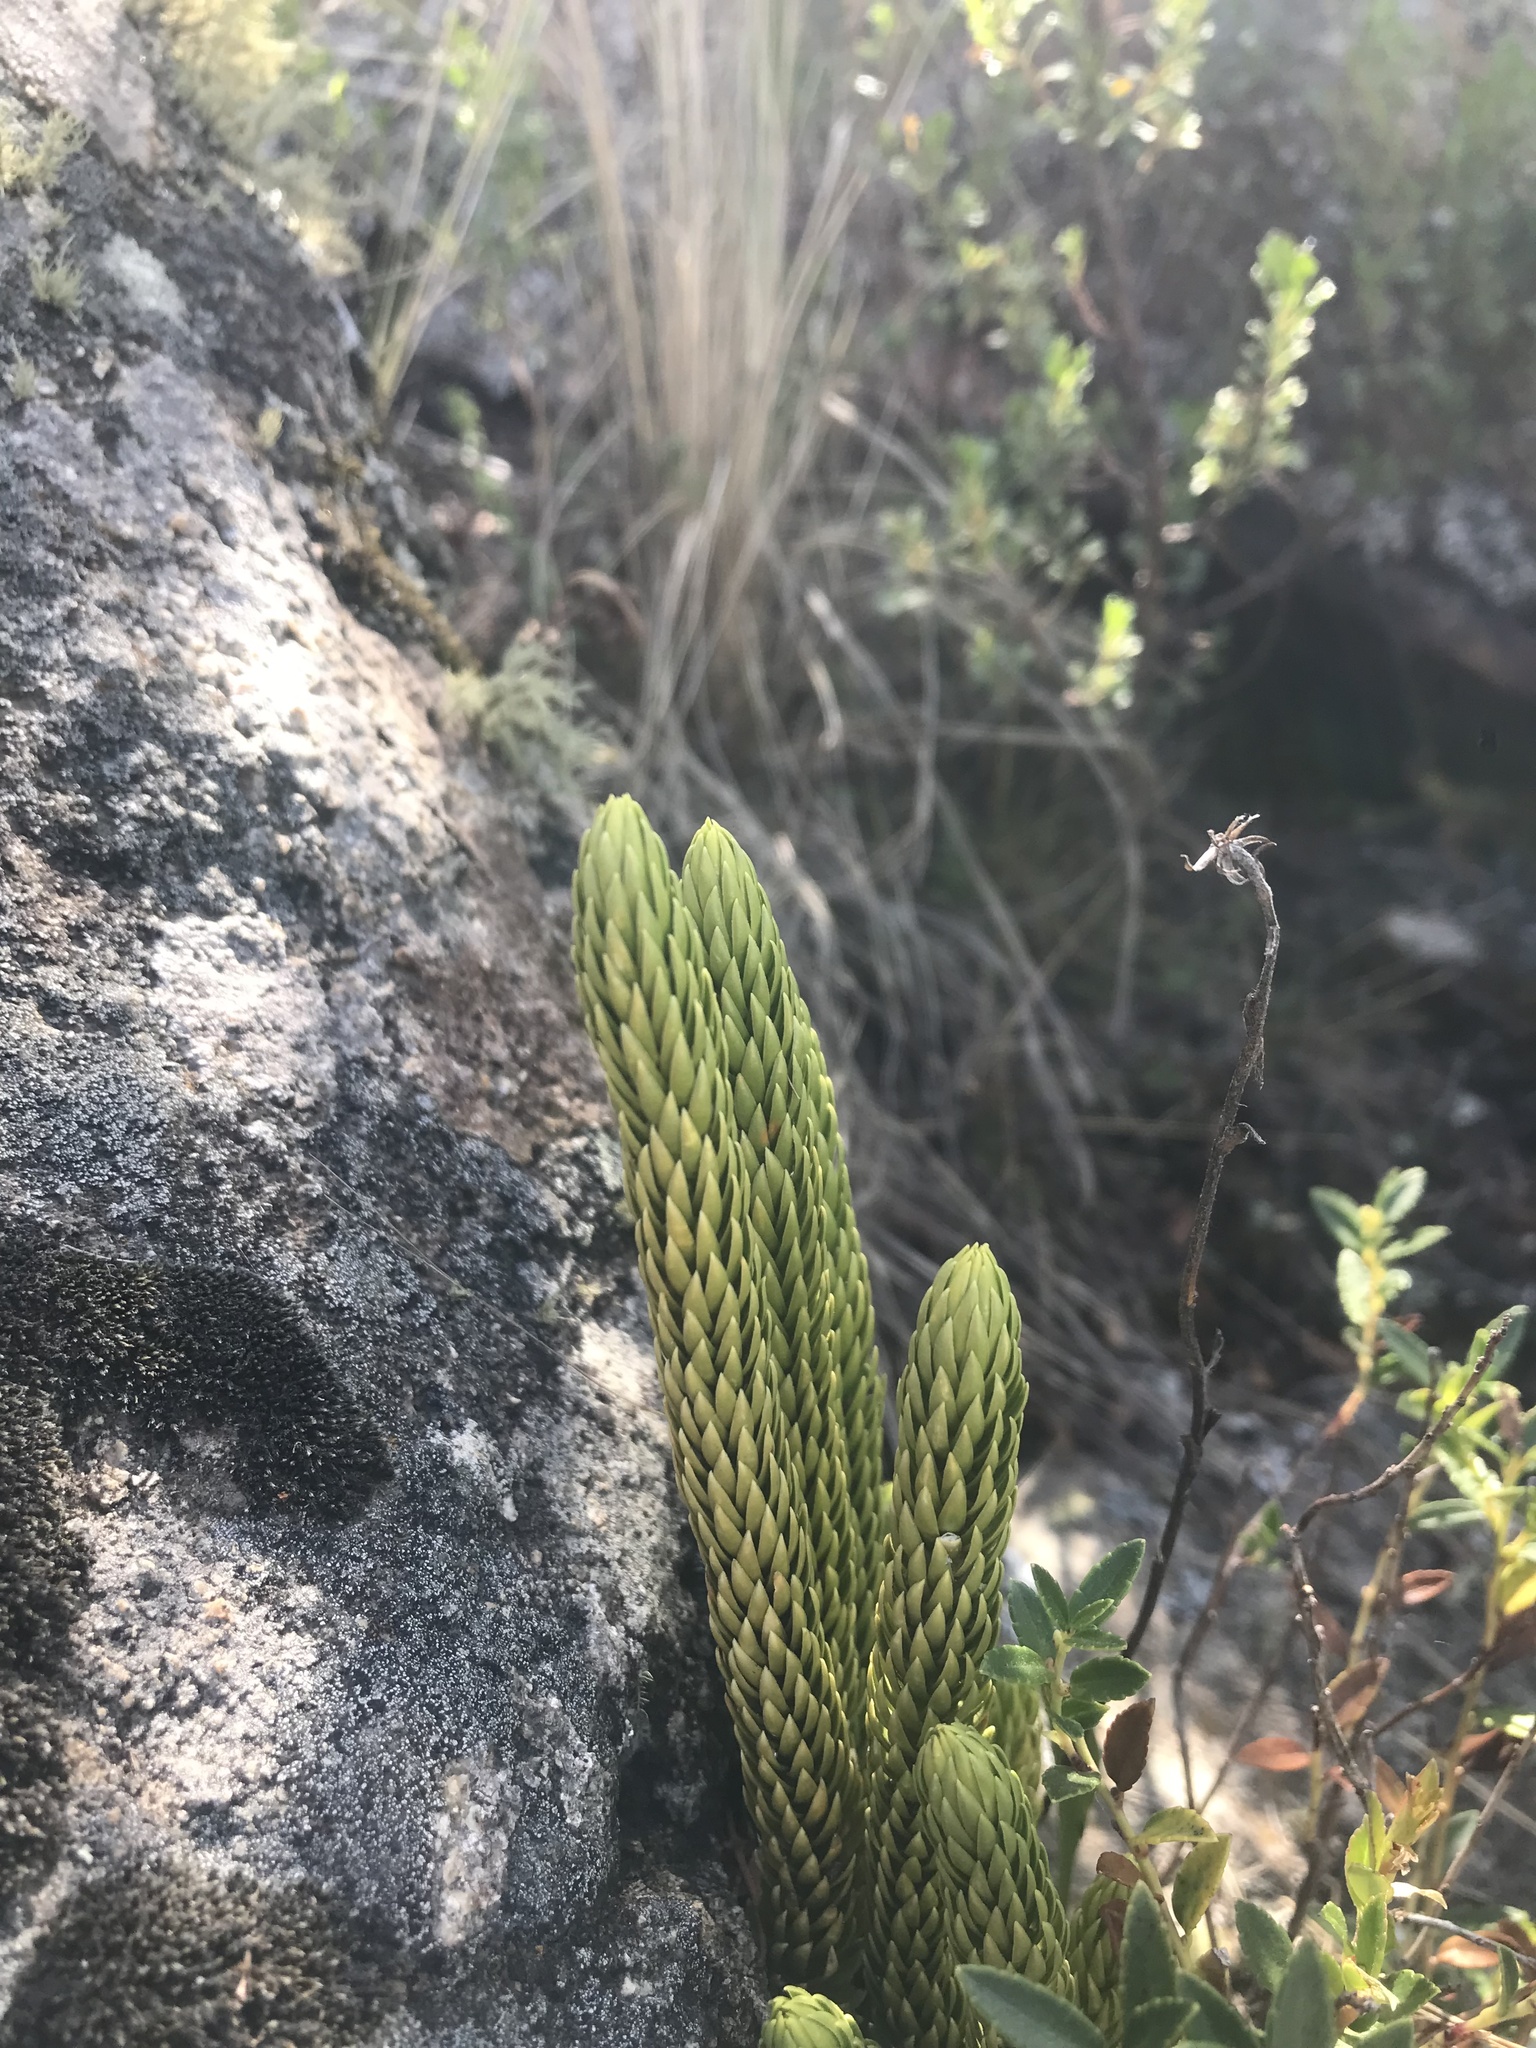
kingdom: Plantae
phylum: Tracheophyta
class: Lycopodiopsida
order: Lycopodiales
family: Lycopodiaceae
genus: Phlegmariurus
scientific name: Phlegmariurus saururus
